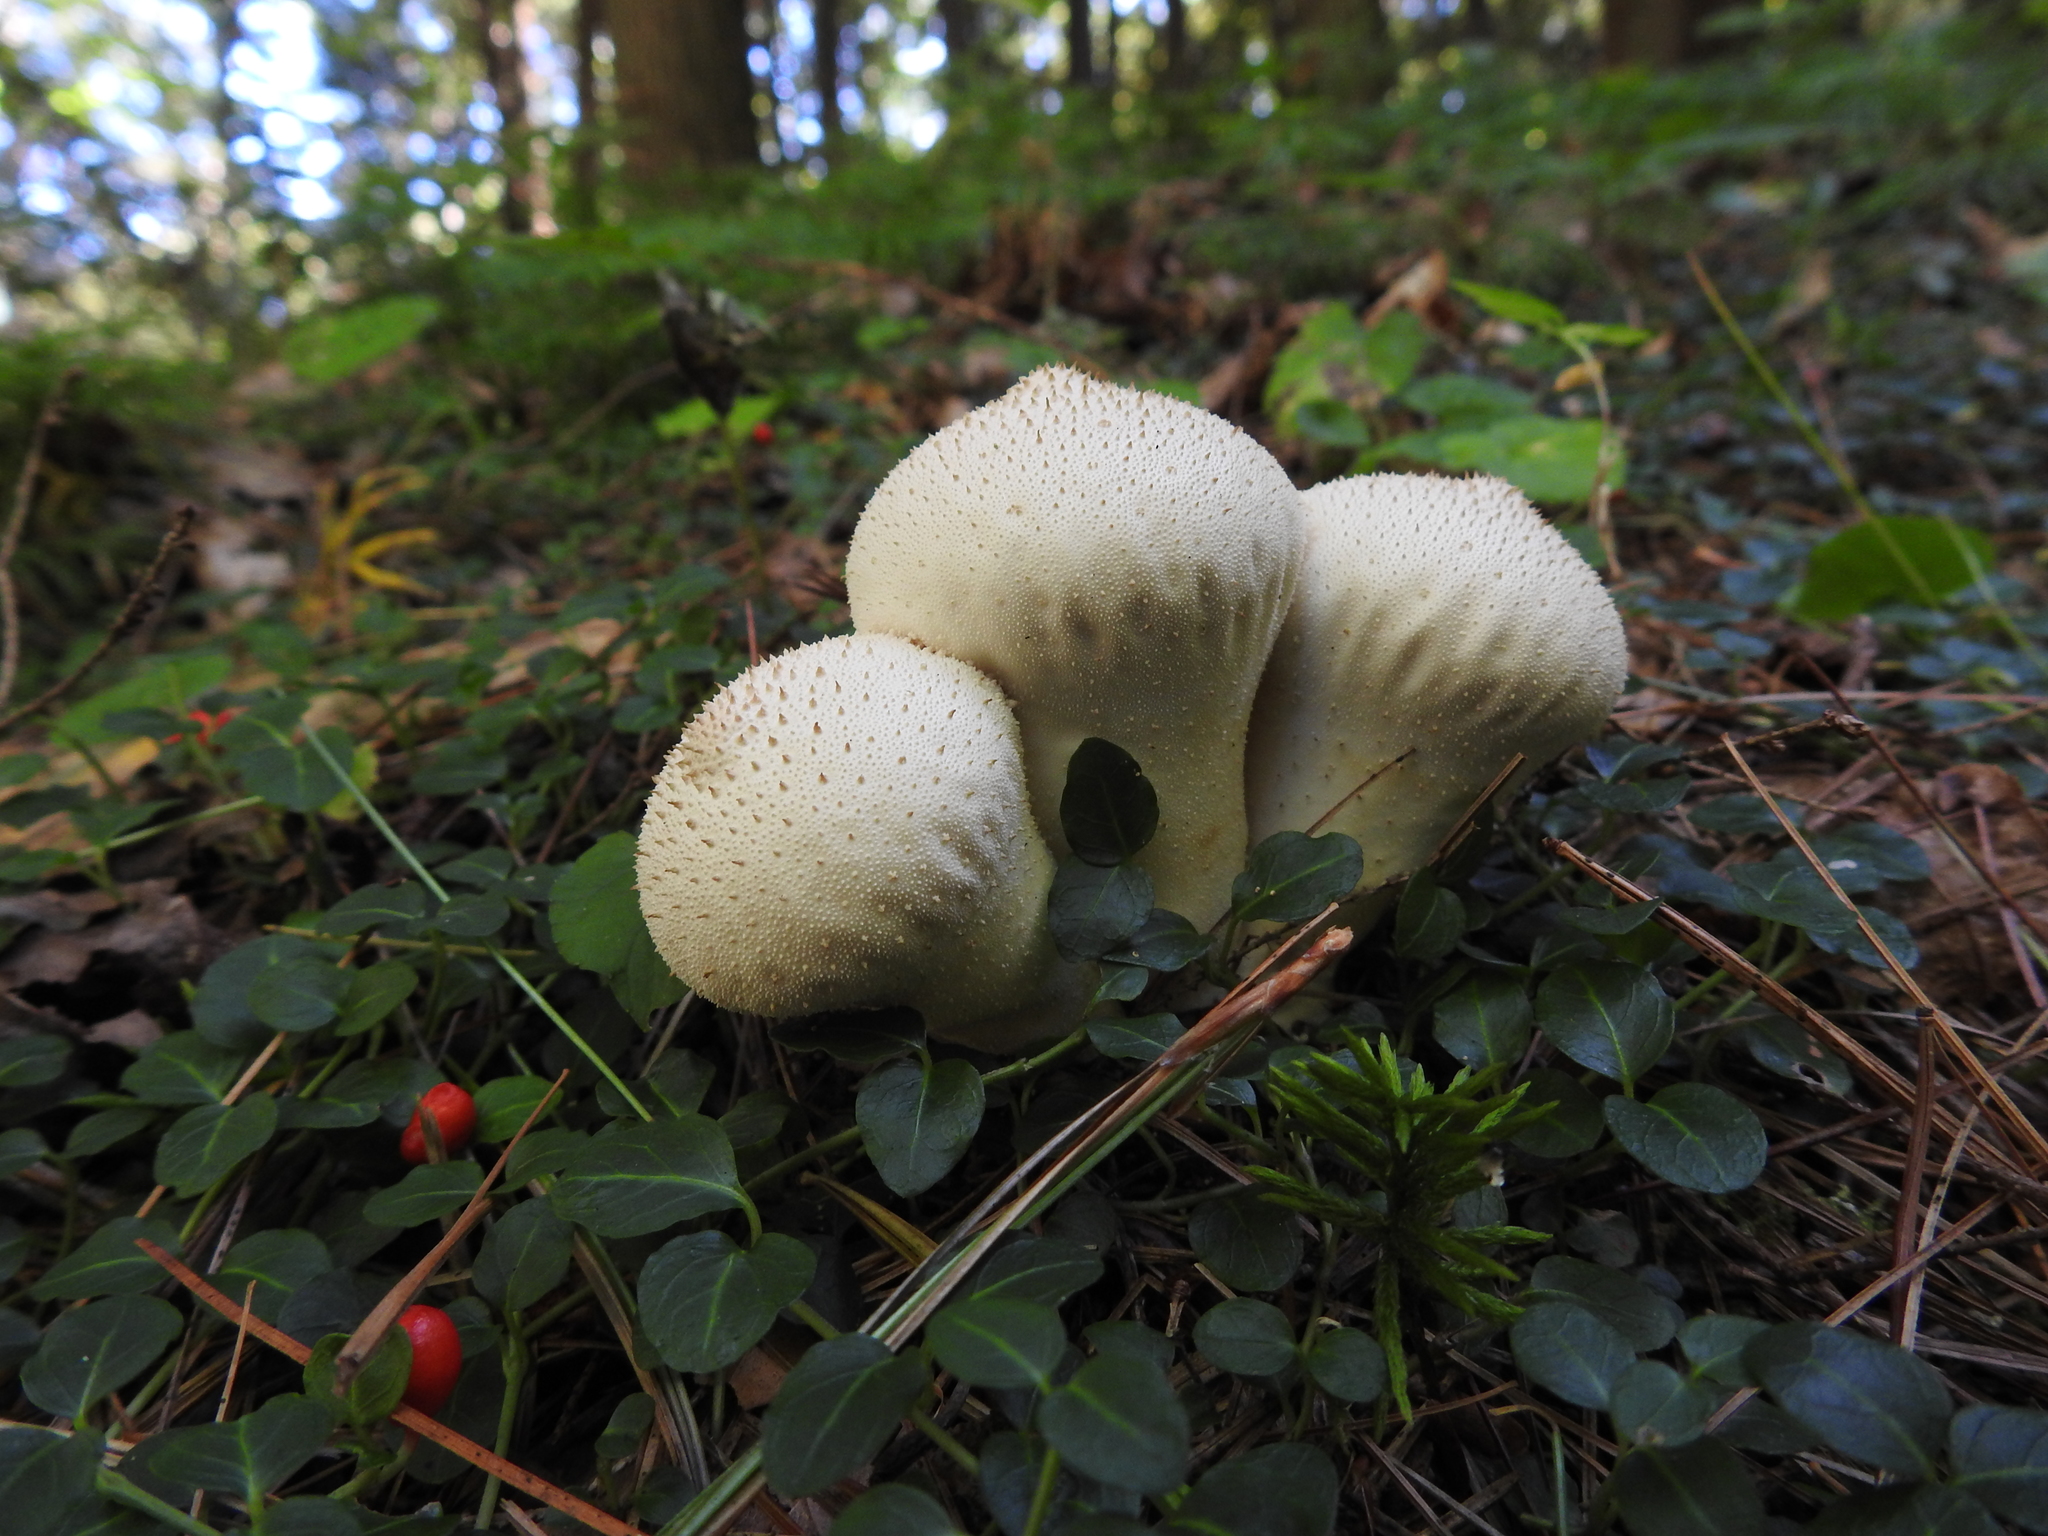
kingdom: Fungi
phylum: Basidiomycota
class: Agaricomycetes
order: Agaricales
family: Lycoperdaceae
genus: Lycoperdon
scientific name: Lycoperdon perlatum
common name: Common puffball
